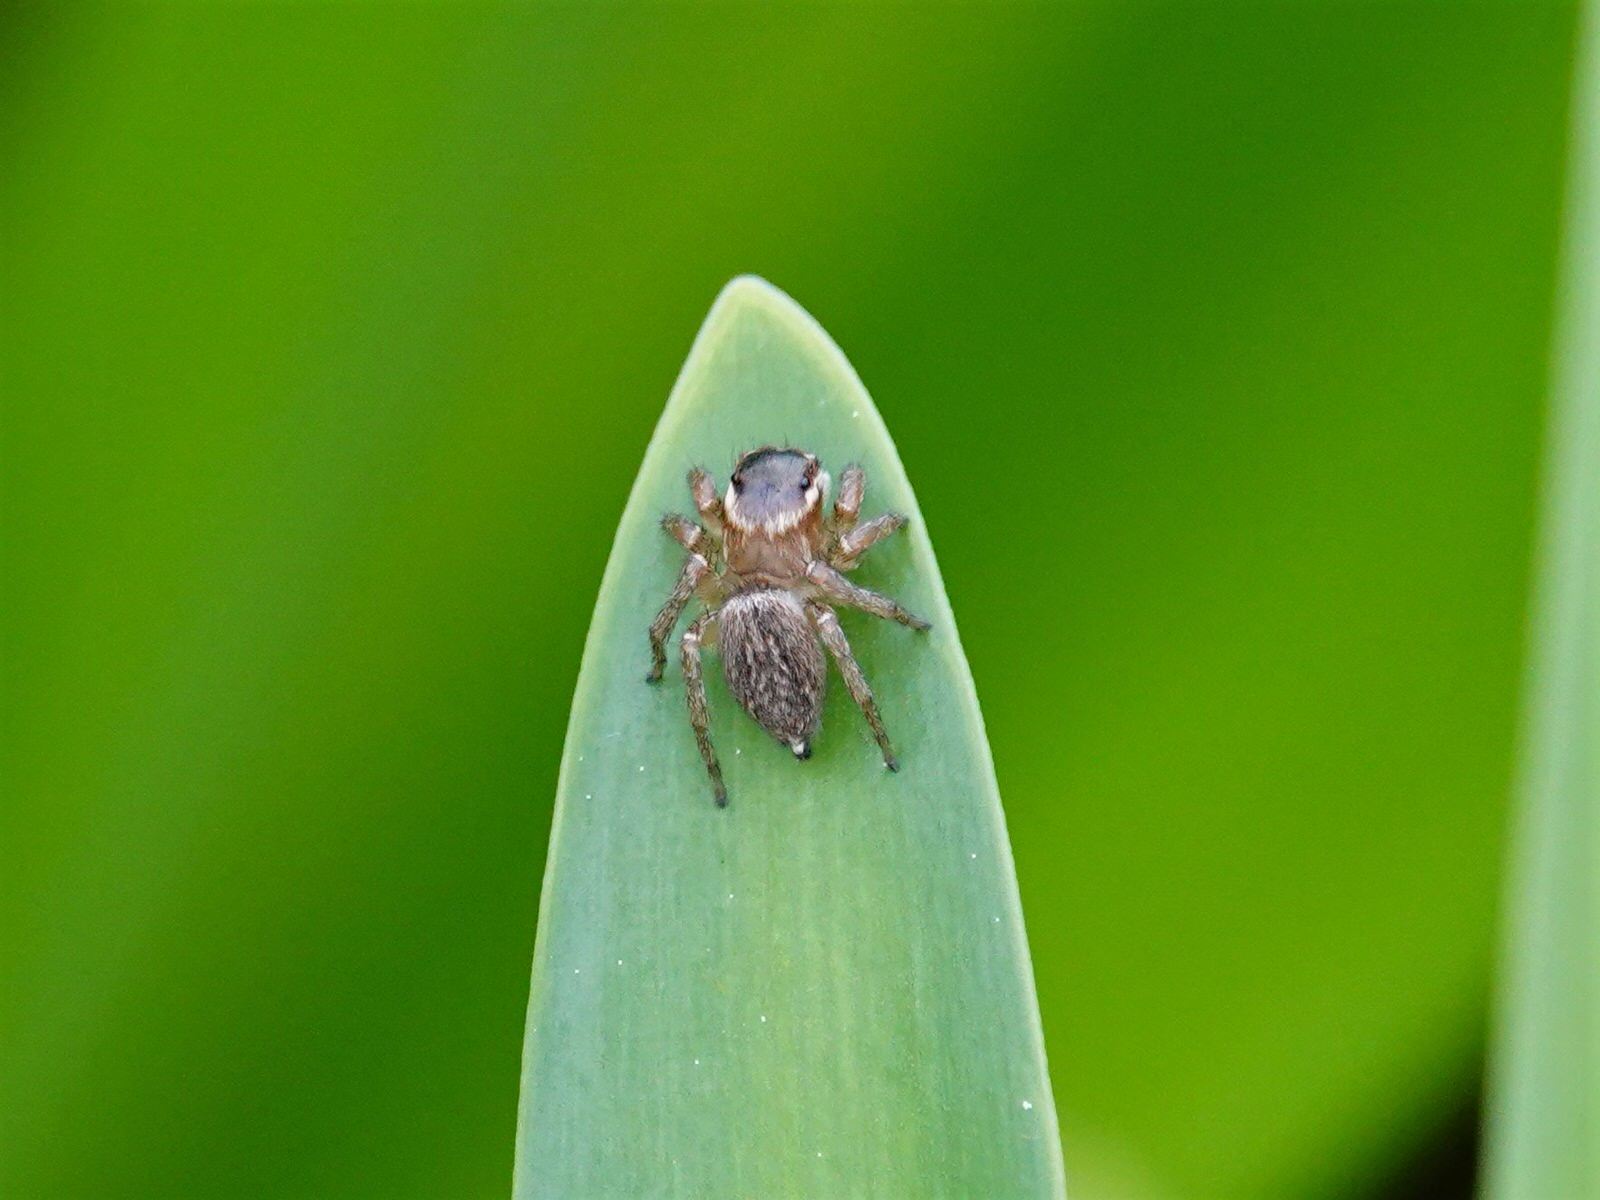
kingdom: Animalia
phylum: Arthropoda
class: Arachnida
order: Araneae
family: Salticidae
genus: Maratus
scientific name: Maratus griseus
